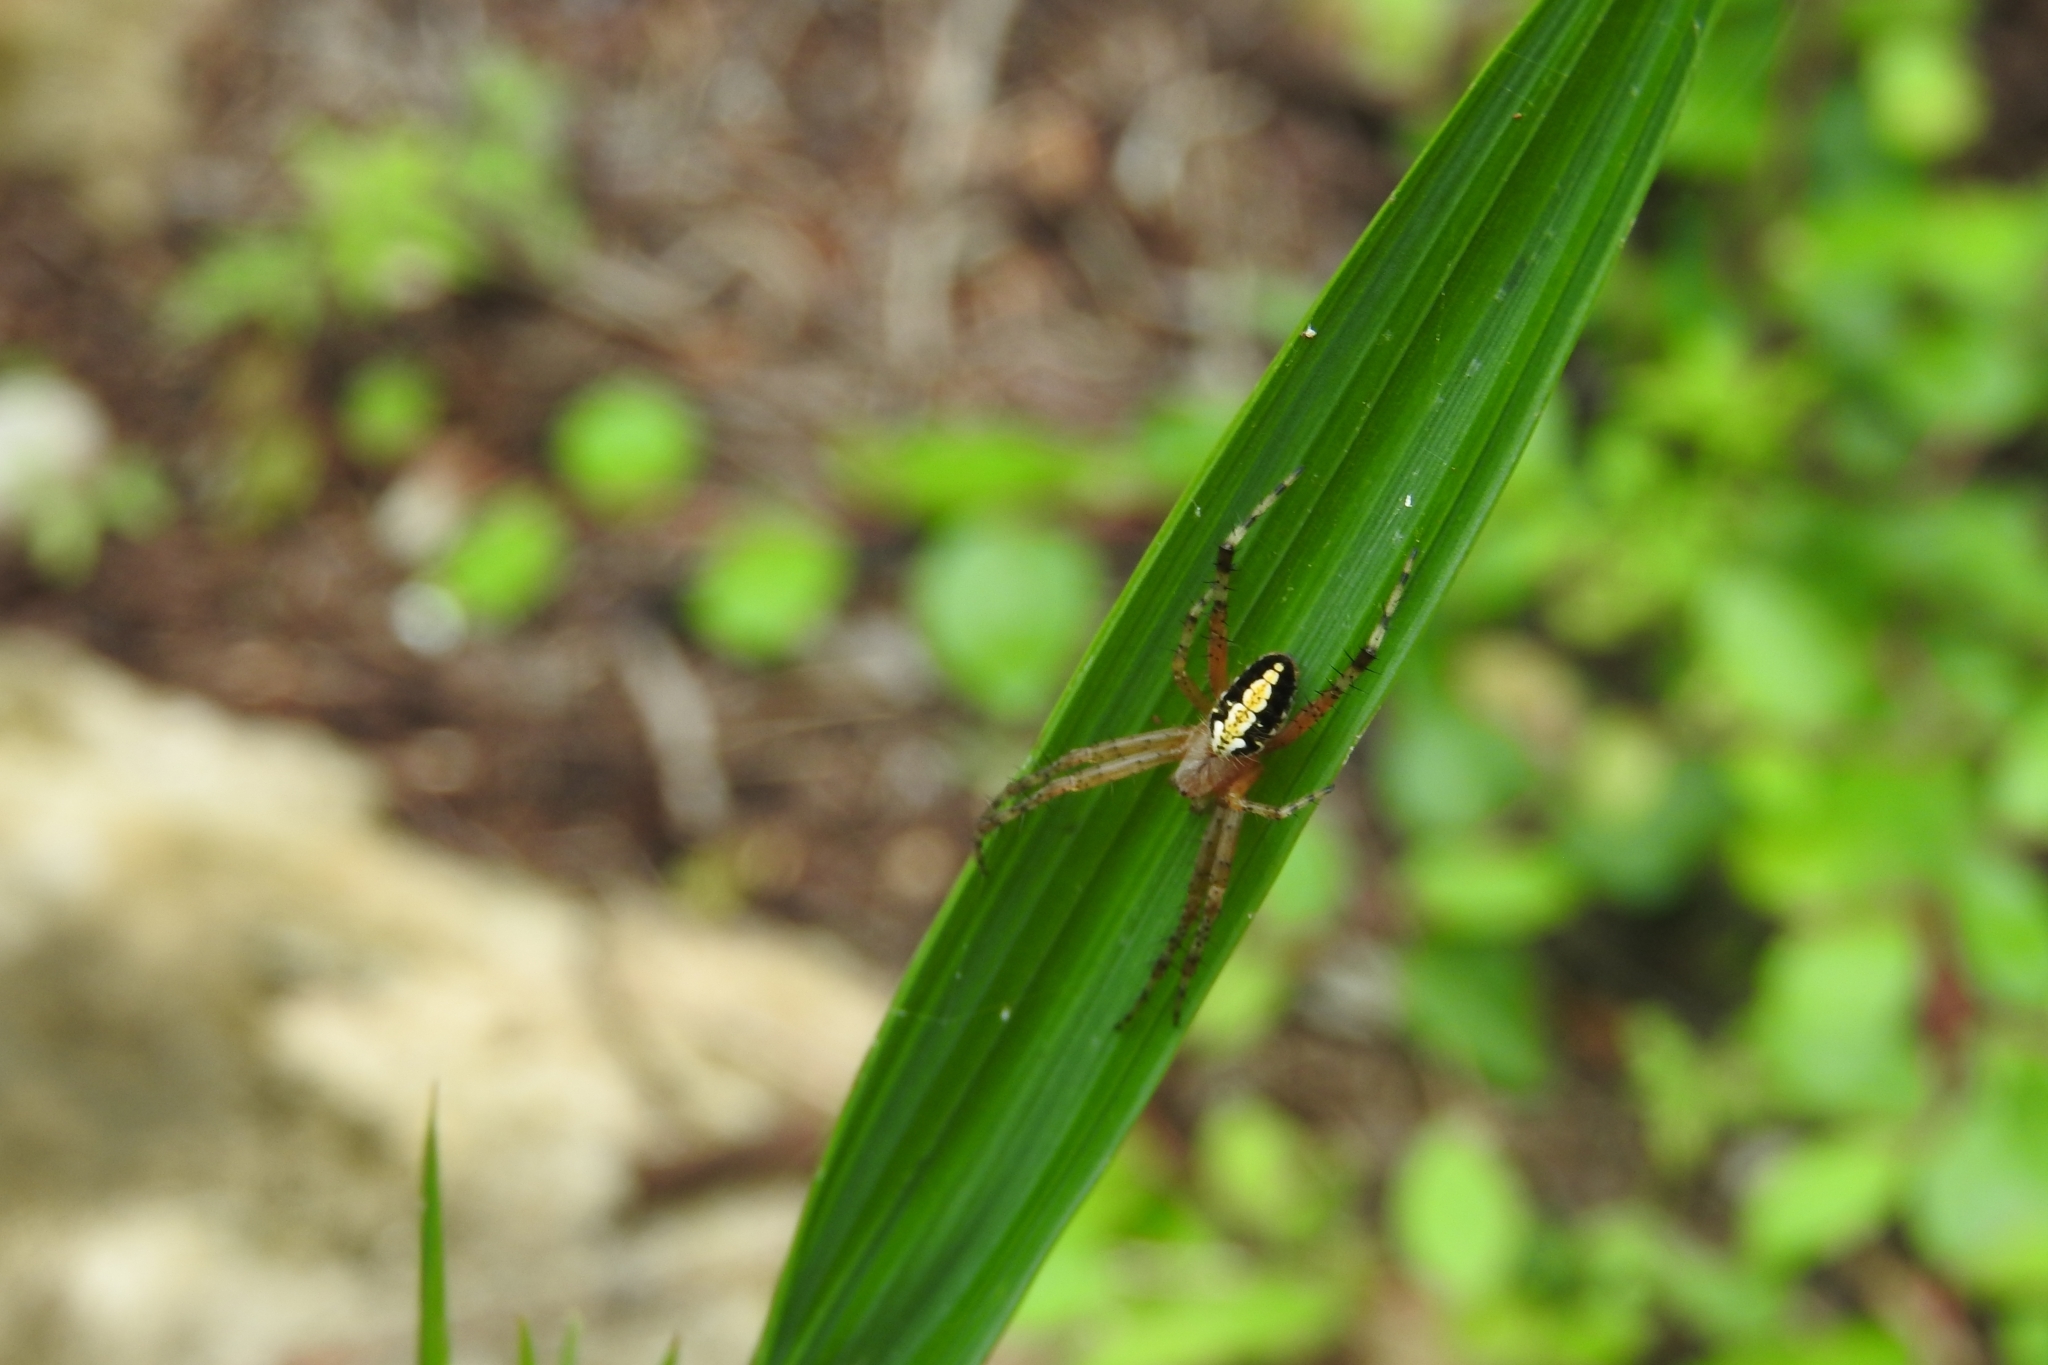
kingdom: Animalia
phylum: Arthropoda
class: Arachnida
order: Araneae
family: Araneidae
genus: Neoscona
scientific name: Neoscona oaxacensis
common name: Orb weavers
